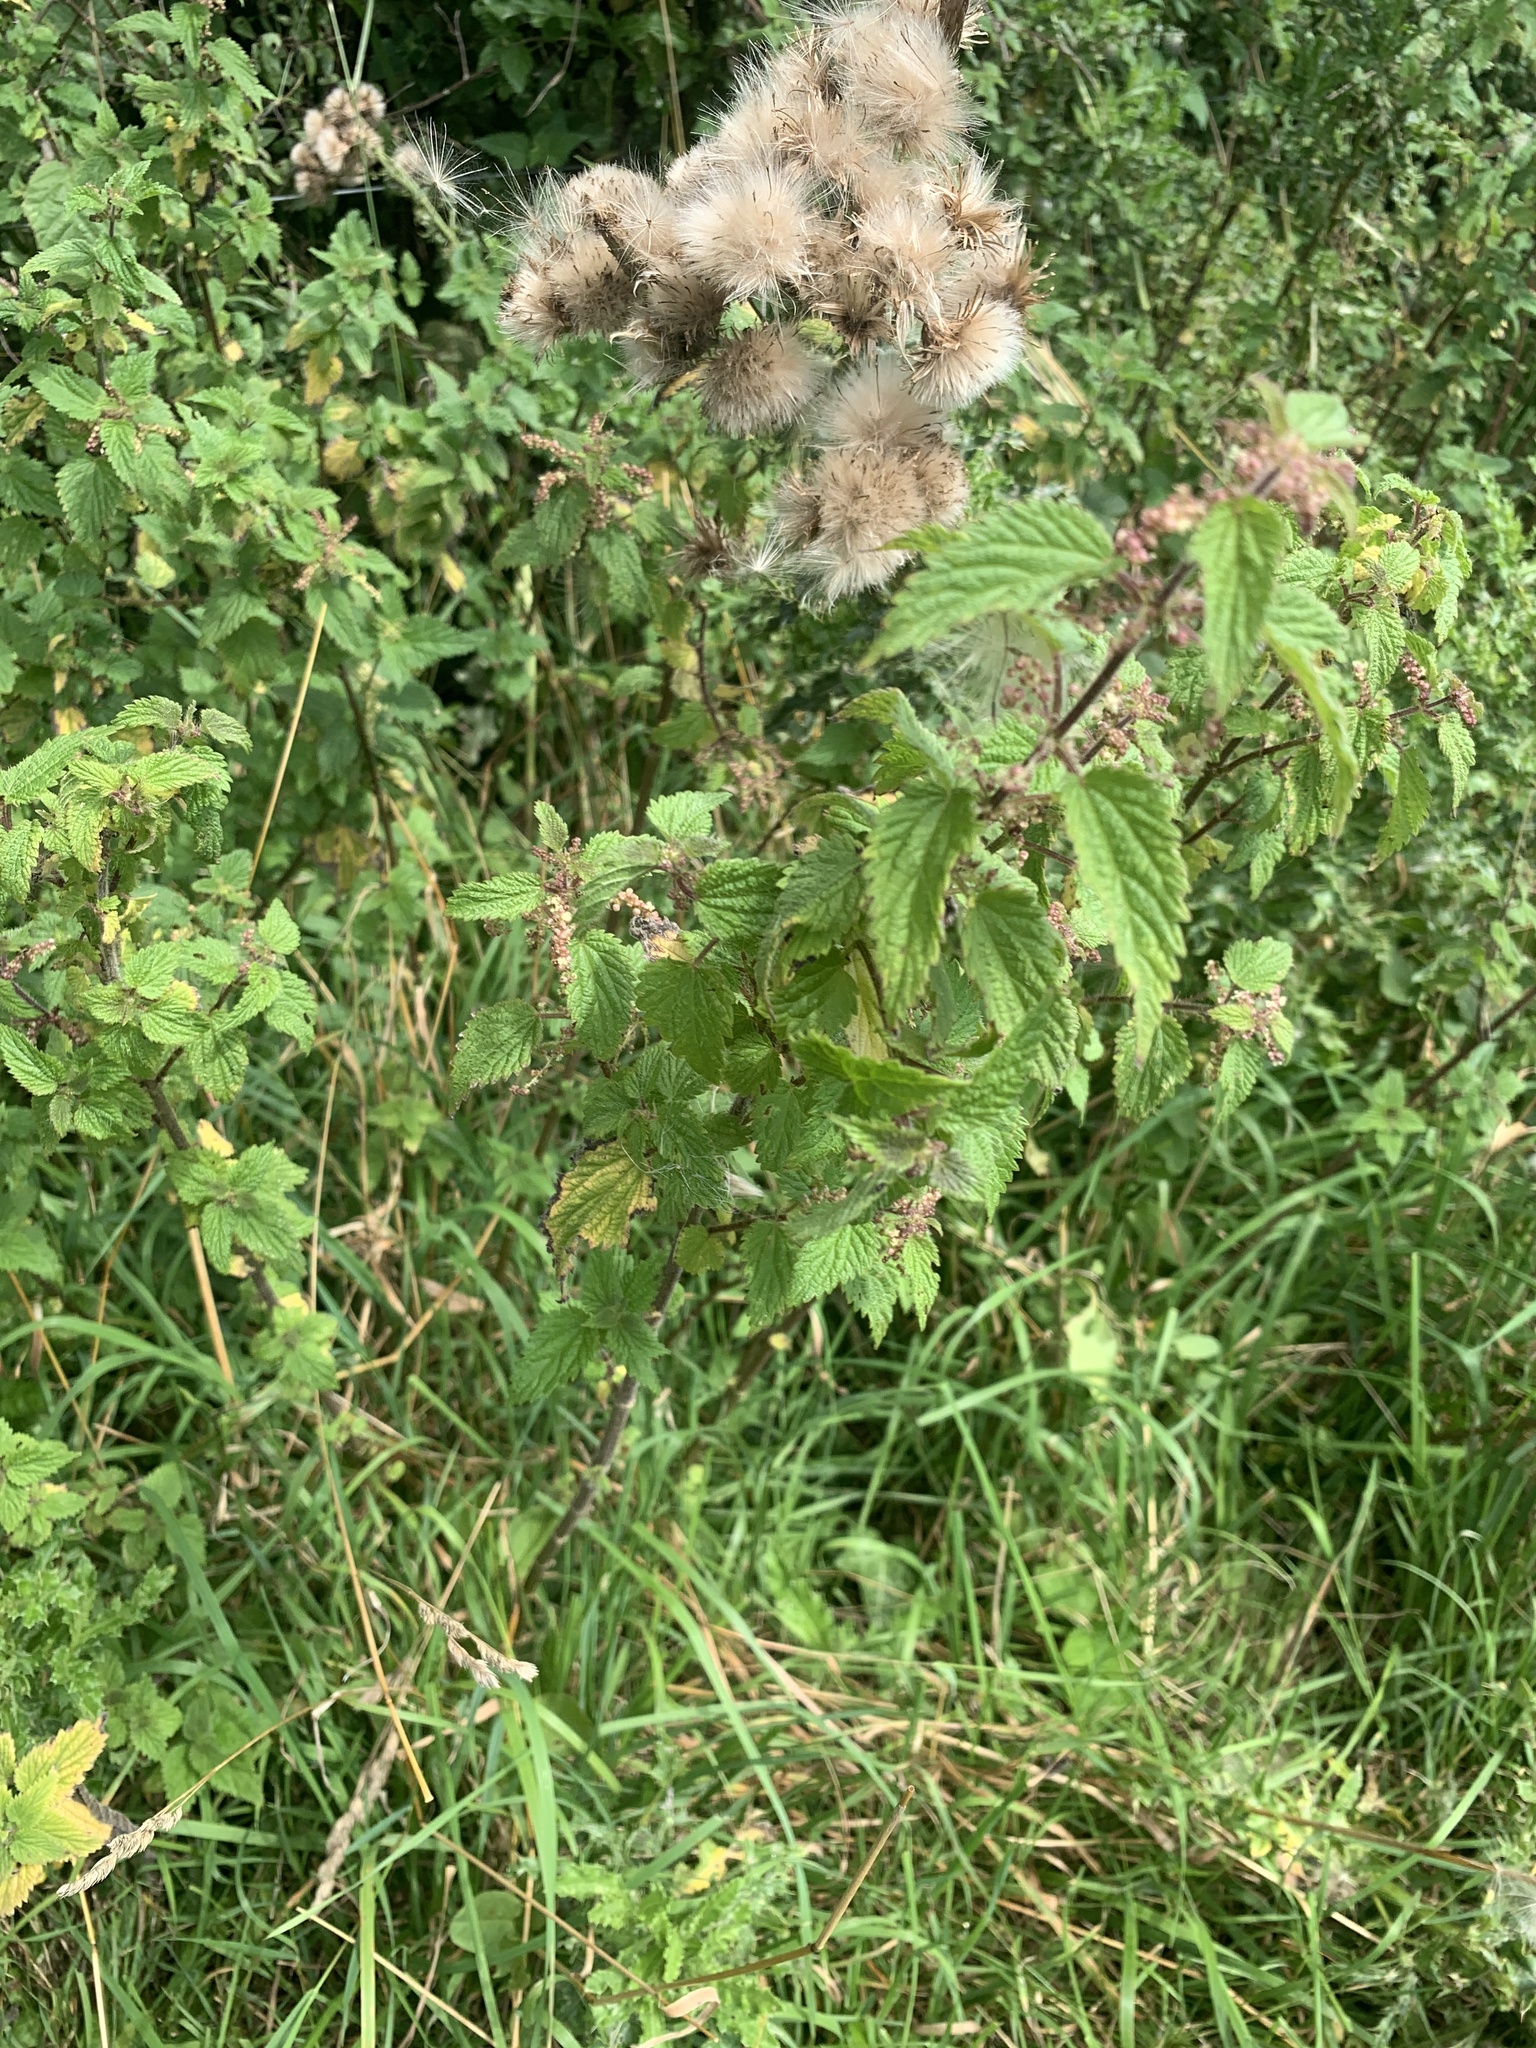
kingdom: Plantae
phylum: Tracheophyta
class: Magnoliopsida
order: Rosales
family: Urticaceae
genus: Urtica
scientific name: Urtica dioica
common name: Common nettle
